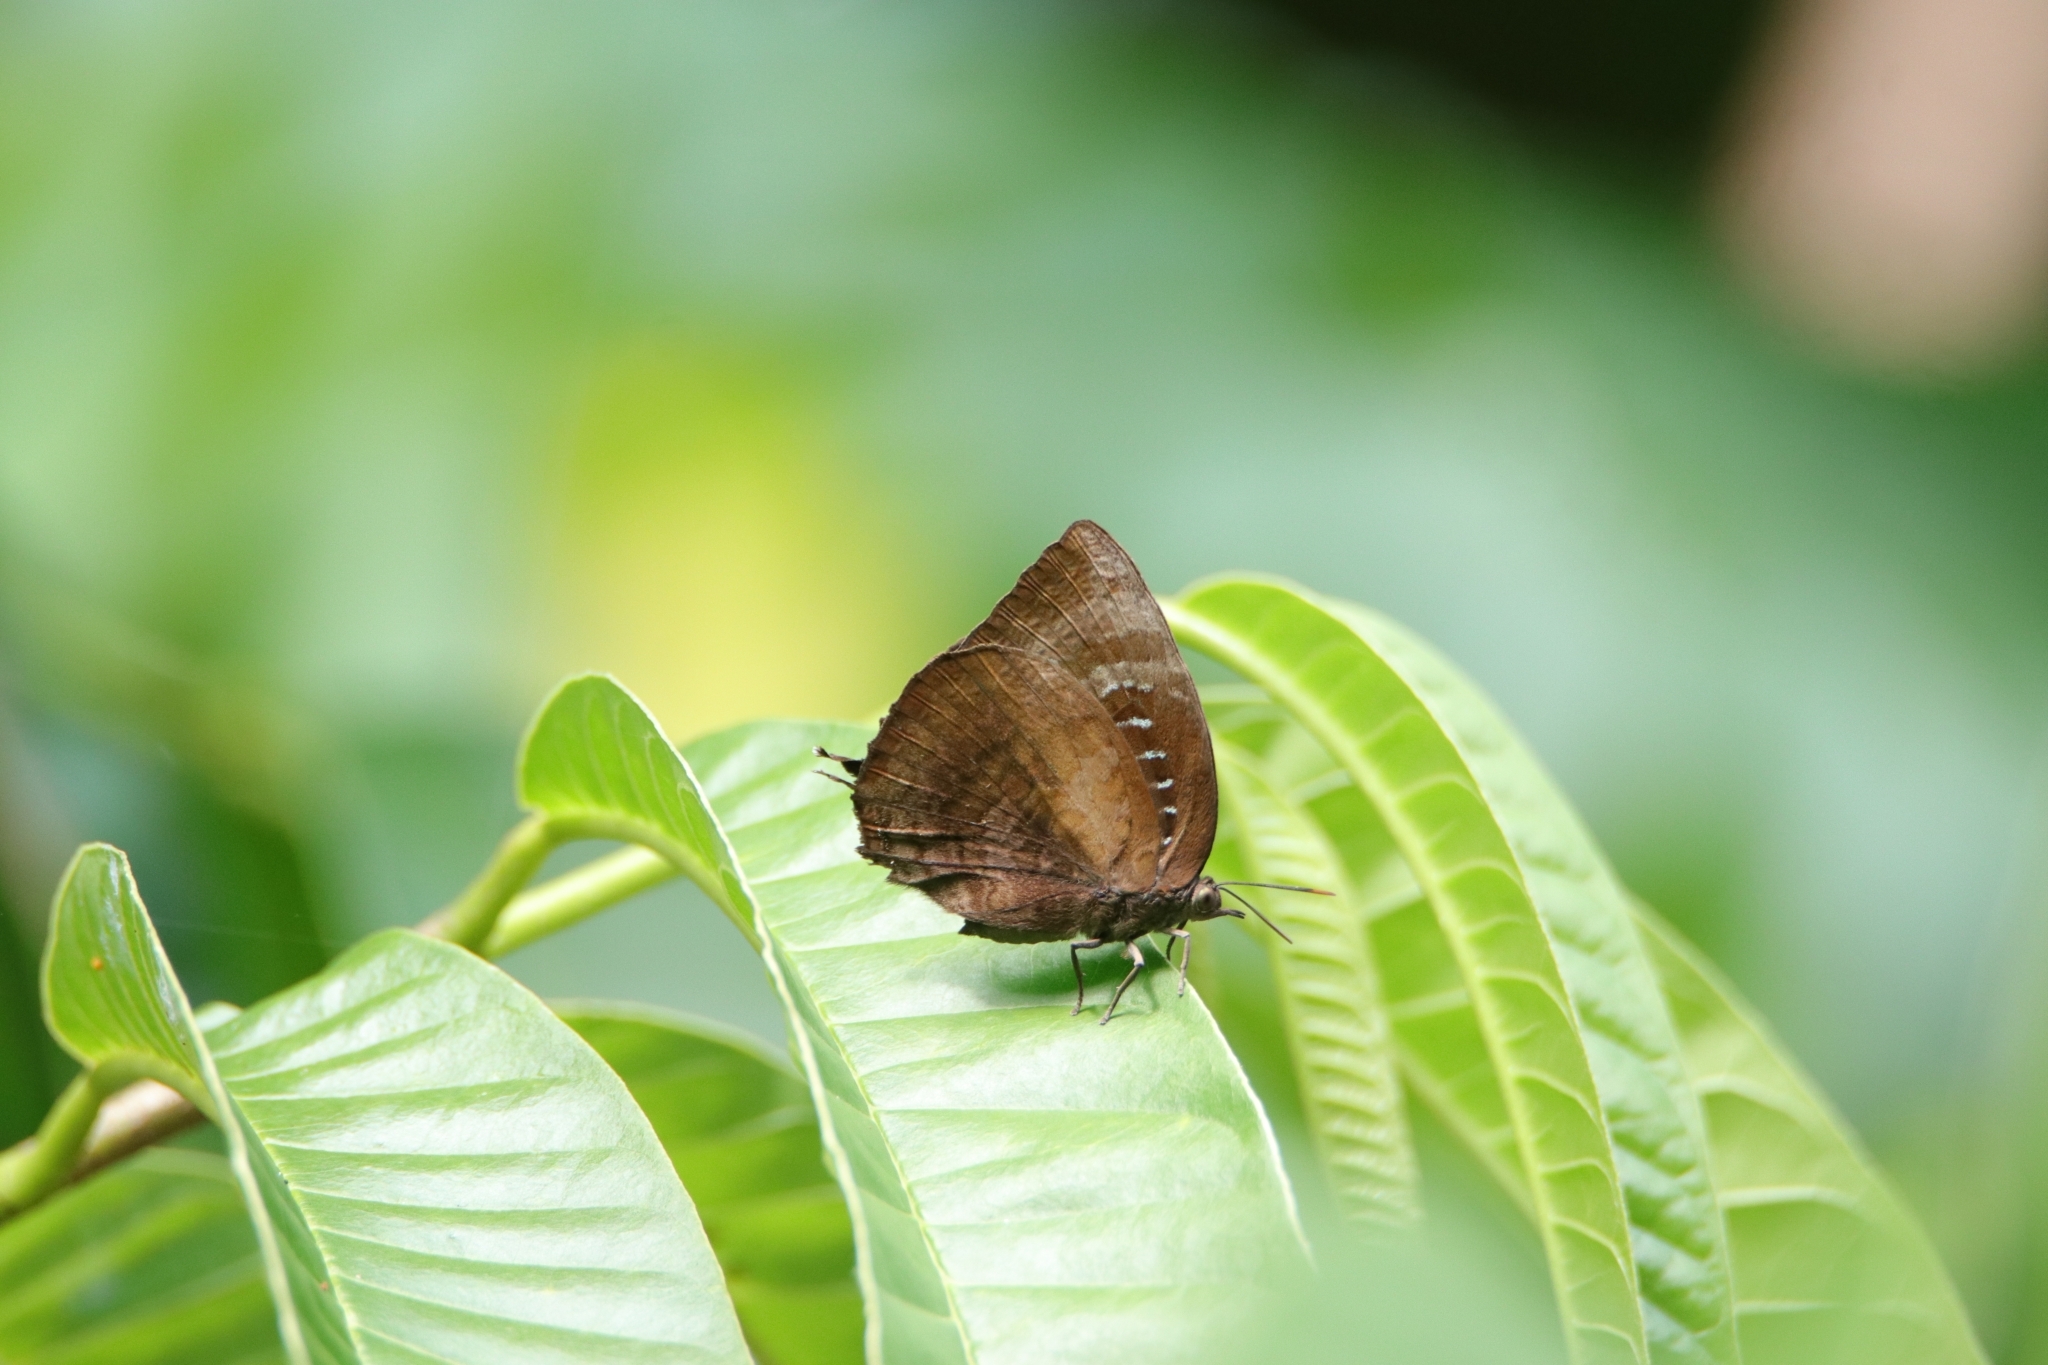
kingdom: Animalia
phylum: Arthropoda
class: Insecta
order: Lepidoptera
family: Lycaenidae
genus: Arhopala
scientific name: Arhopala centaurus
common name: Dull oak-blue
